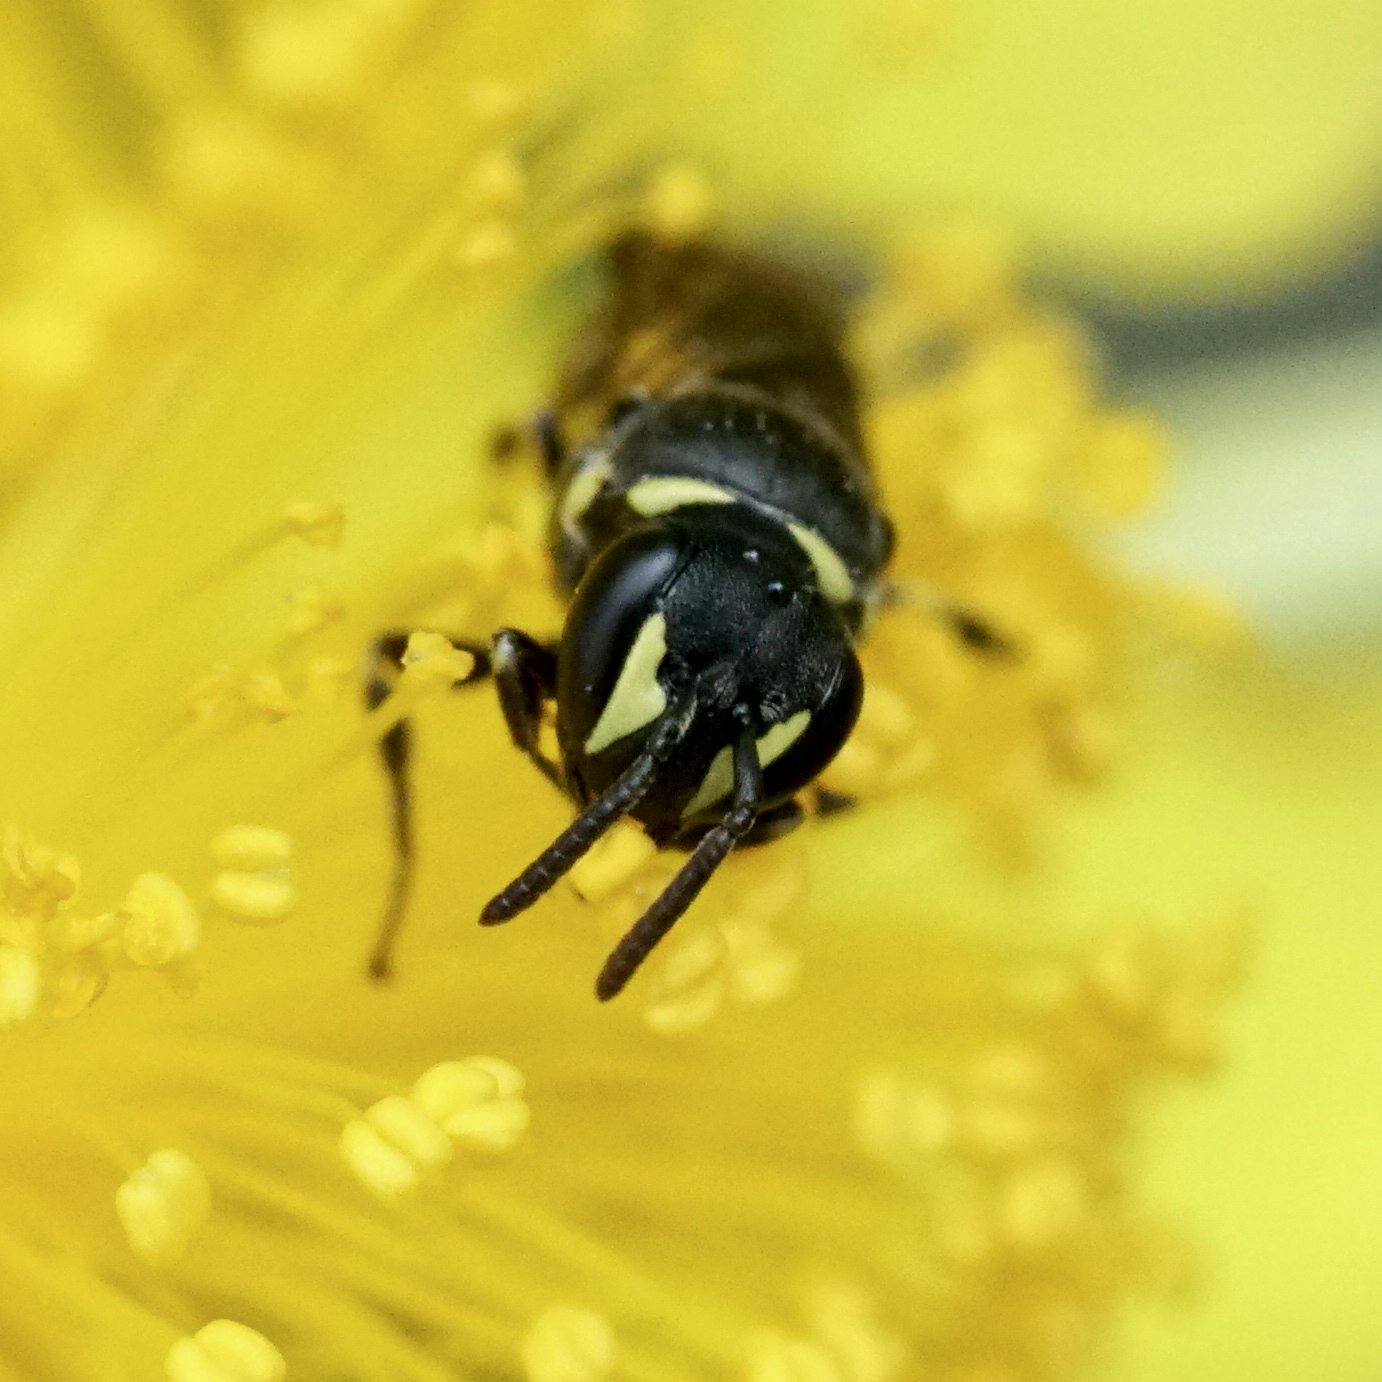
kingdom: Animalia
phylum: Arthropoda
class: Insecta
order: Hymenoptera
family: Colletidae
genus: Prosopis
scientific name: Prosopis
